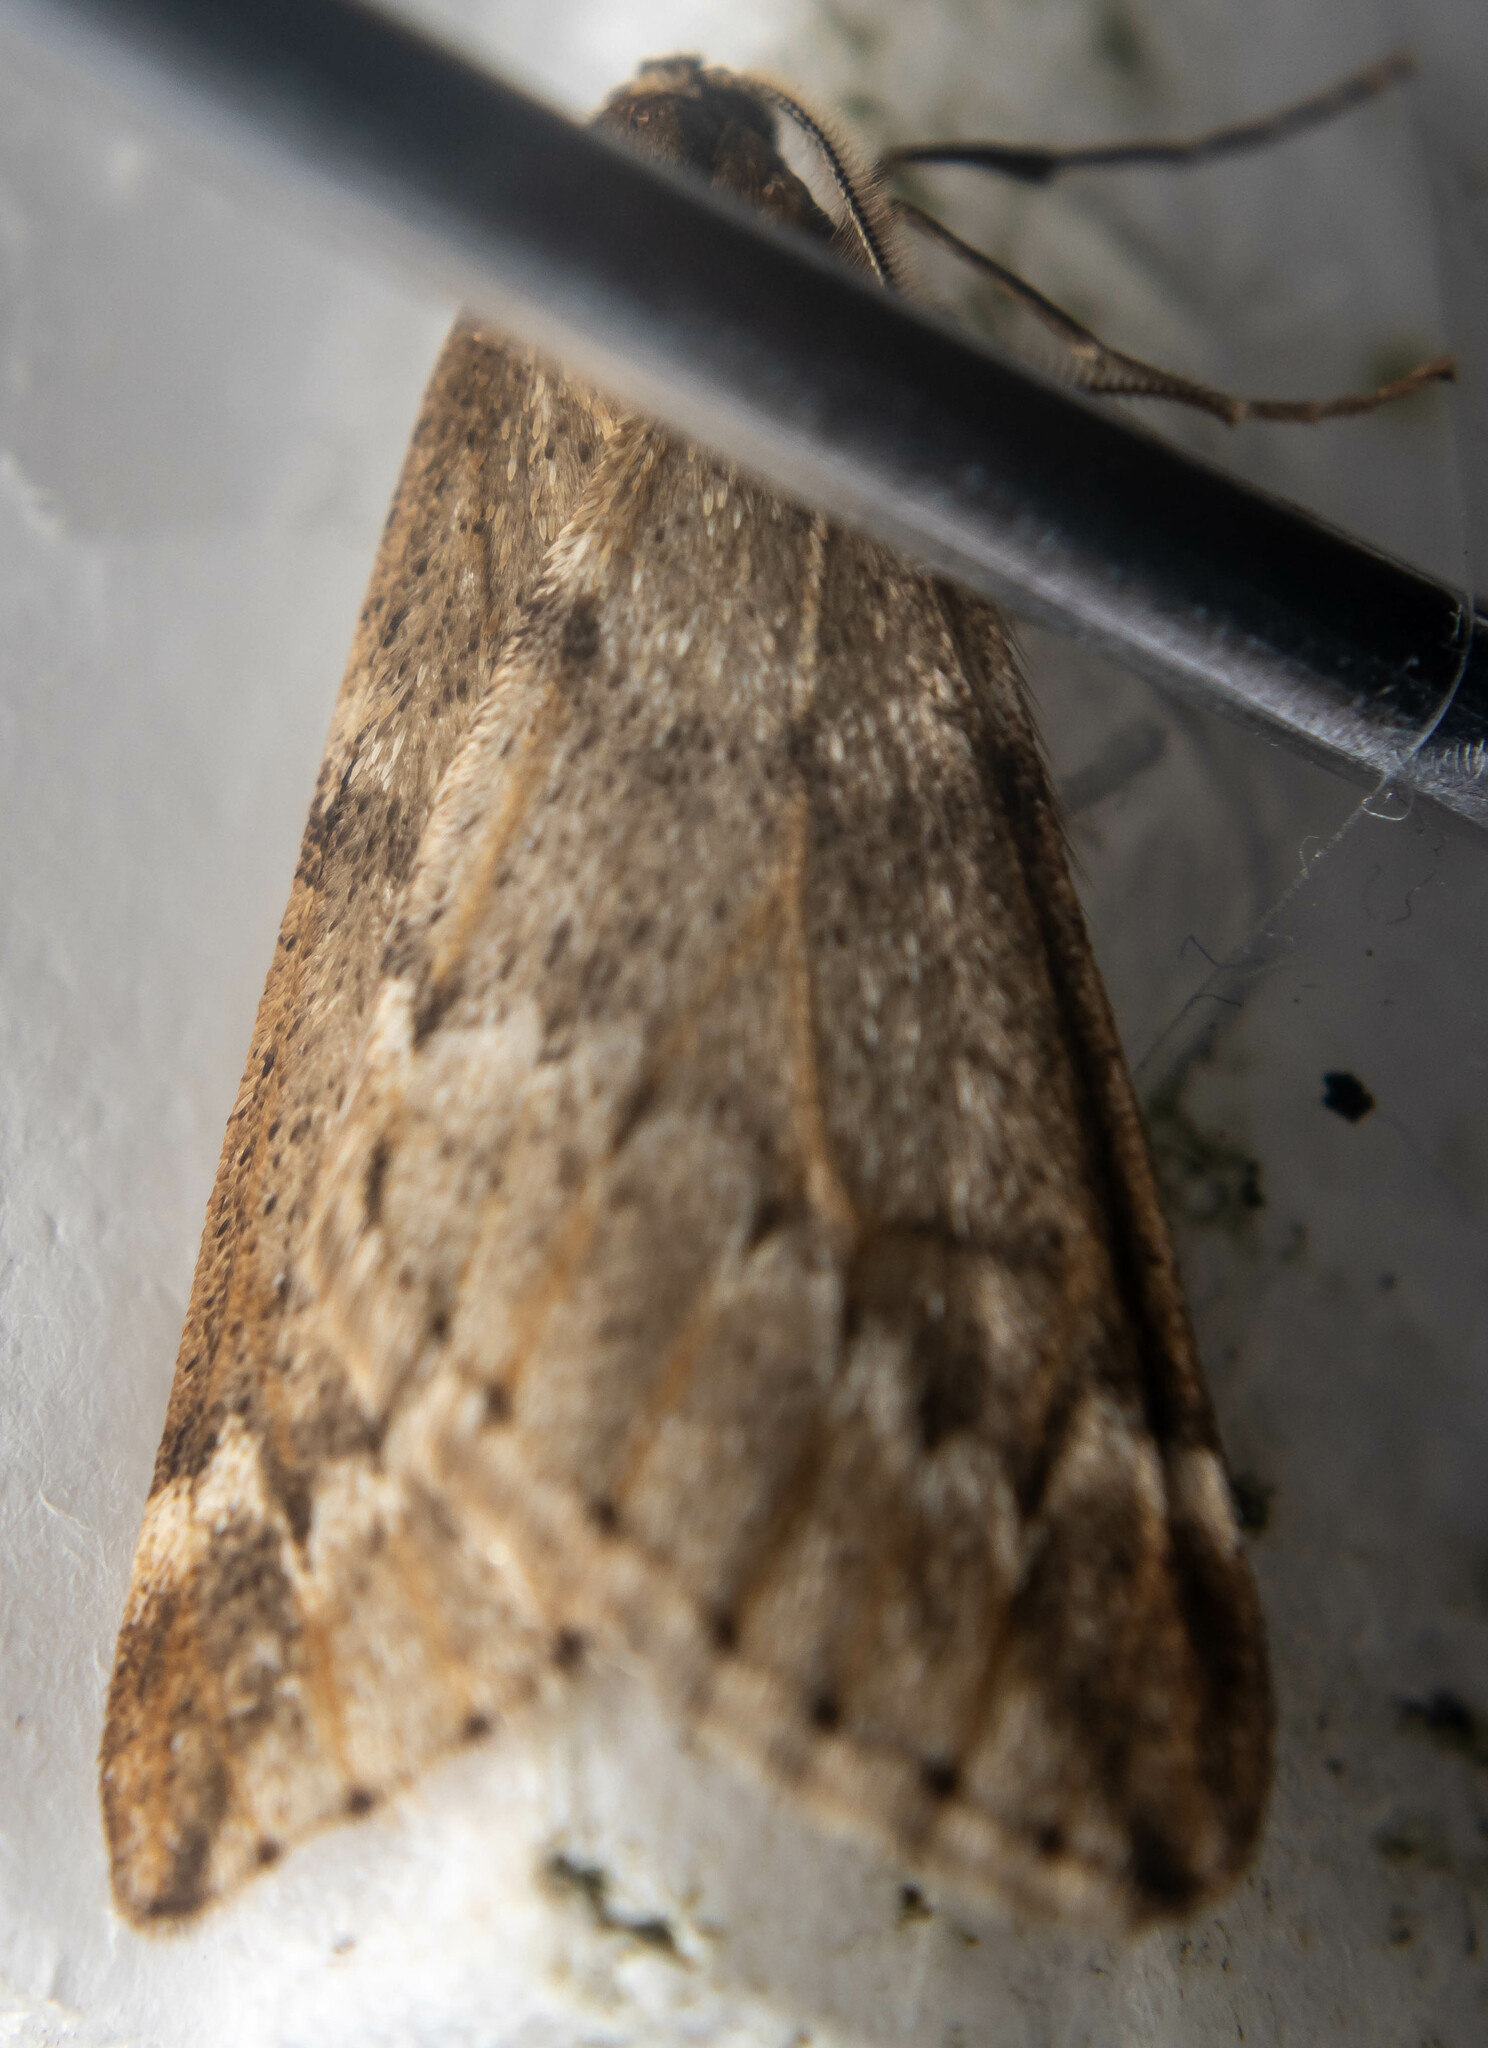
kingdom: Animalia
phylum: Arthropoda
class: Insecta
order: Lepidoptera
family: Geometridae
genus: Alsophila
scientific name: Alsophila aescularia
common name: March moth
